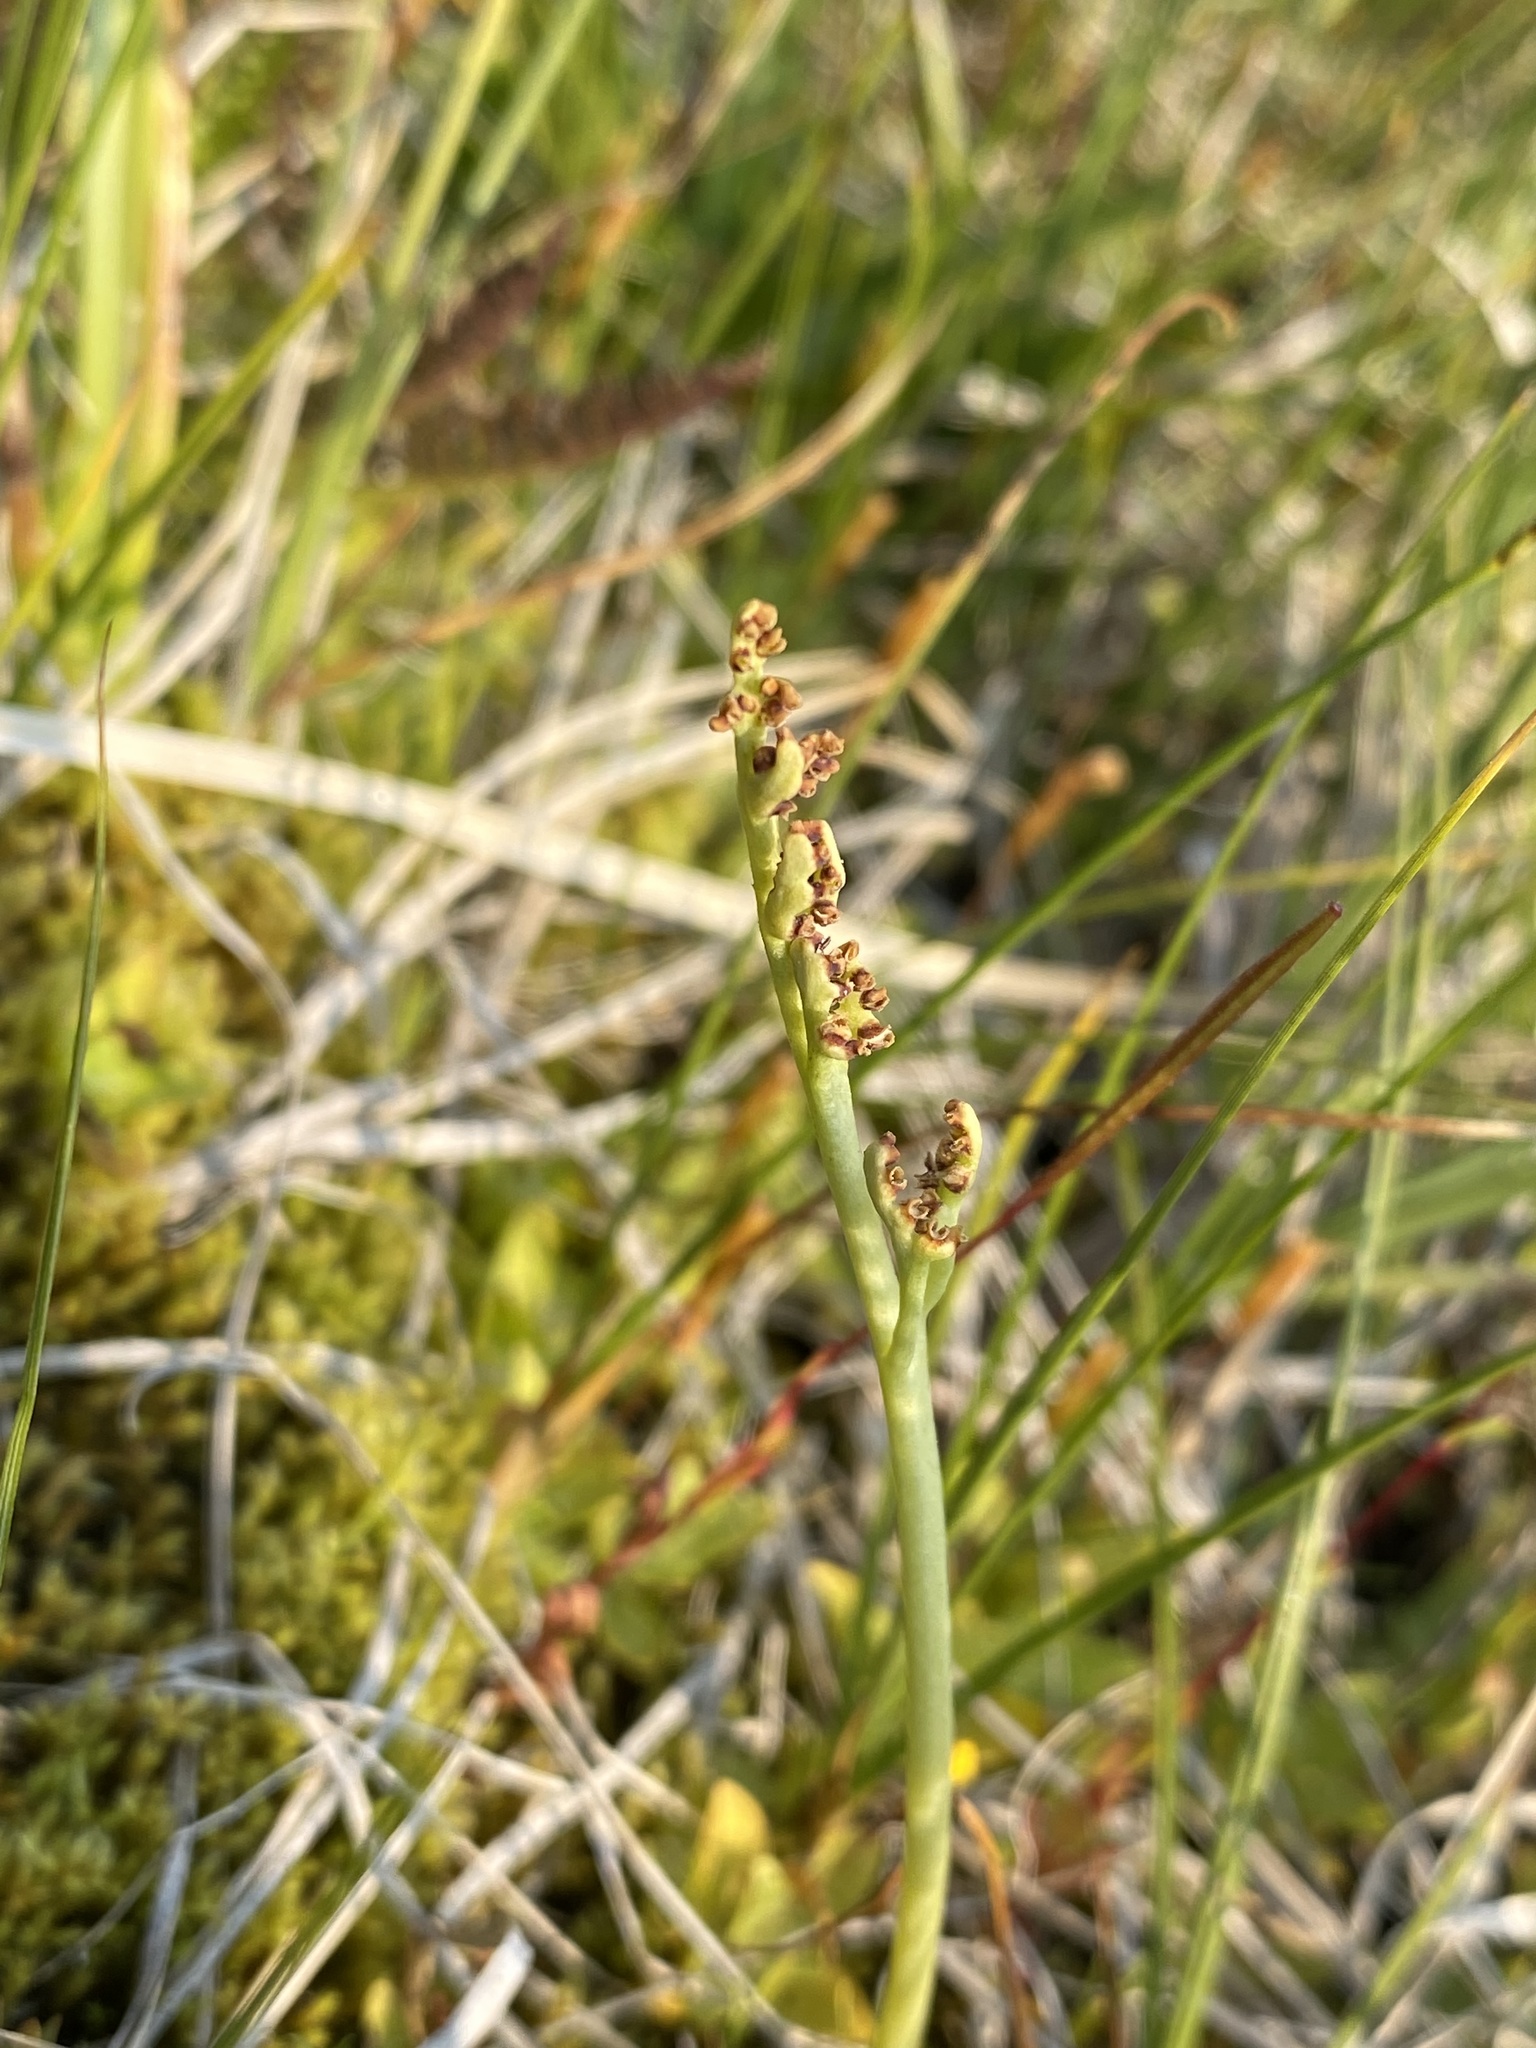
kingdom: Plantae
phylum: Tracheophyta
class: Polypodiopsida
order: Ophioglossales
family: Ophioglossaceae
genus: Botrychium
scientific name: Botrychium simplex
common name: Least moonwort
